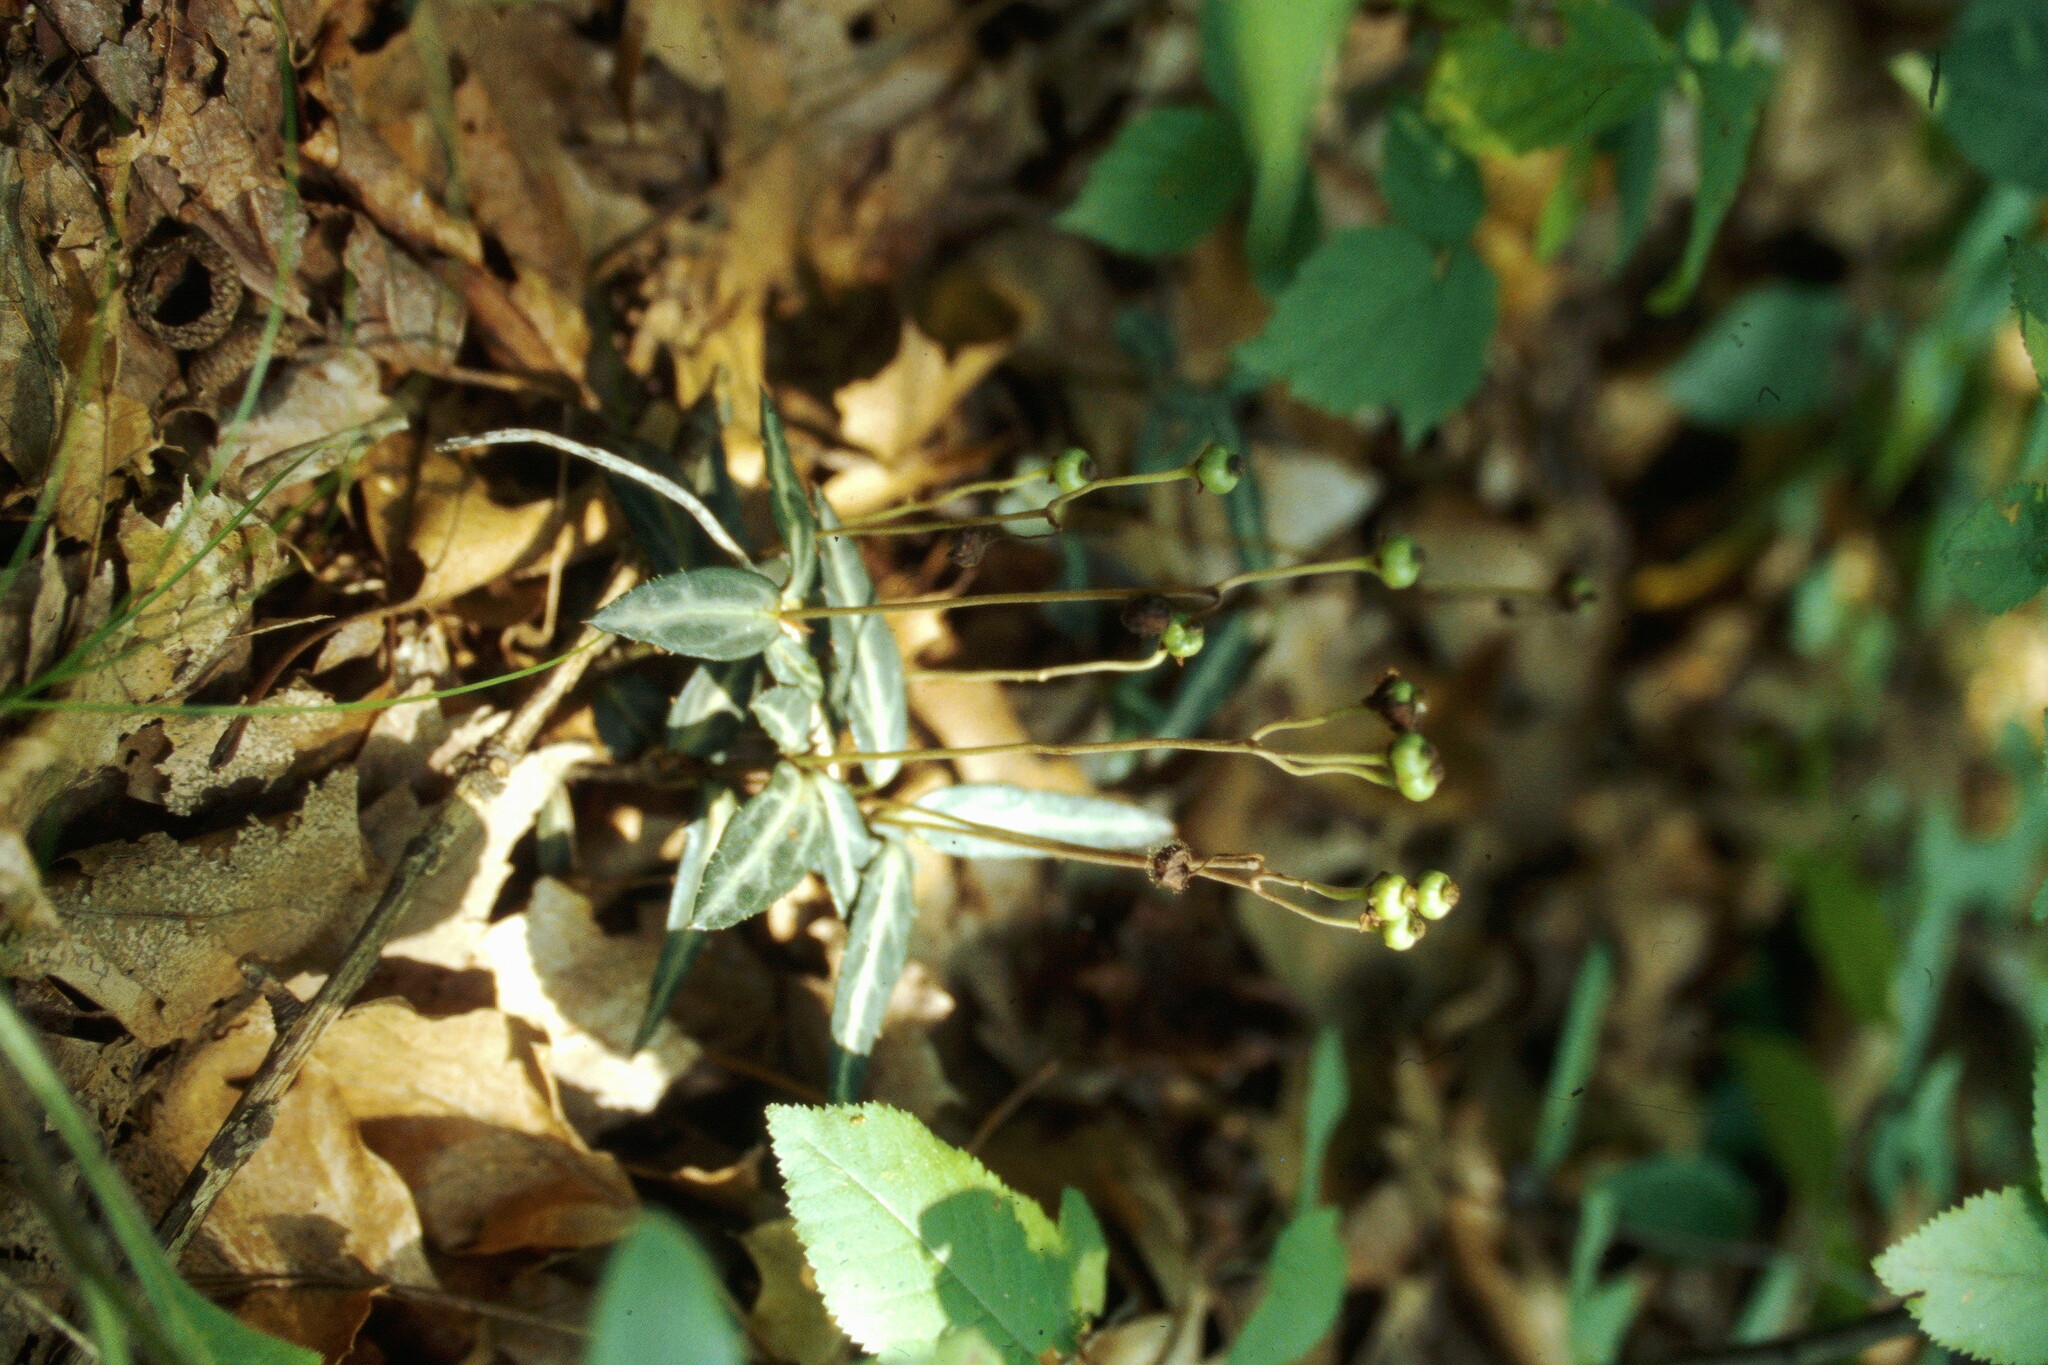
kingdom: Plantae
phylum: Tracheophyta
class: Magnoliopsida
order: Ericales
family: Ericaceae
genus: Chimaphila
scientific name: Chimaphila maculata
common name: Spotted pipsissewa
